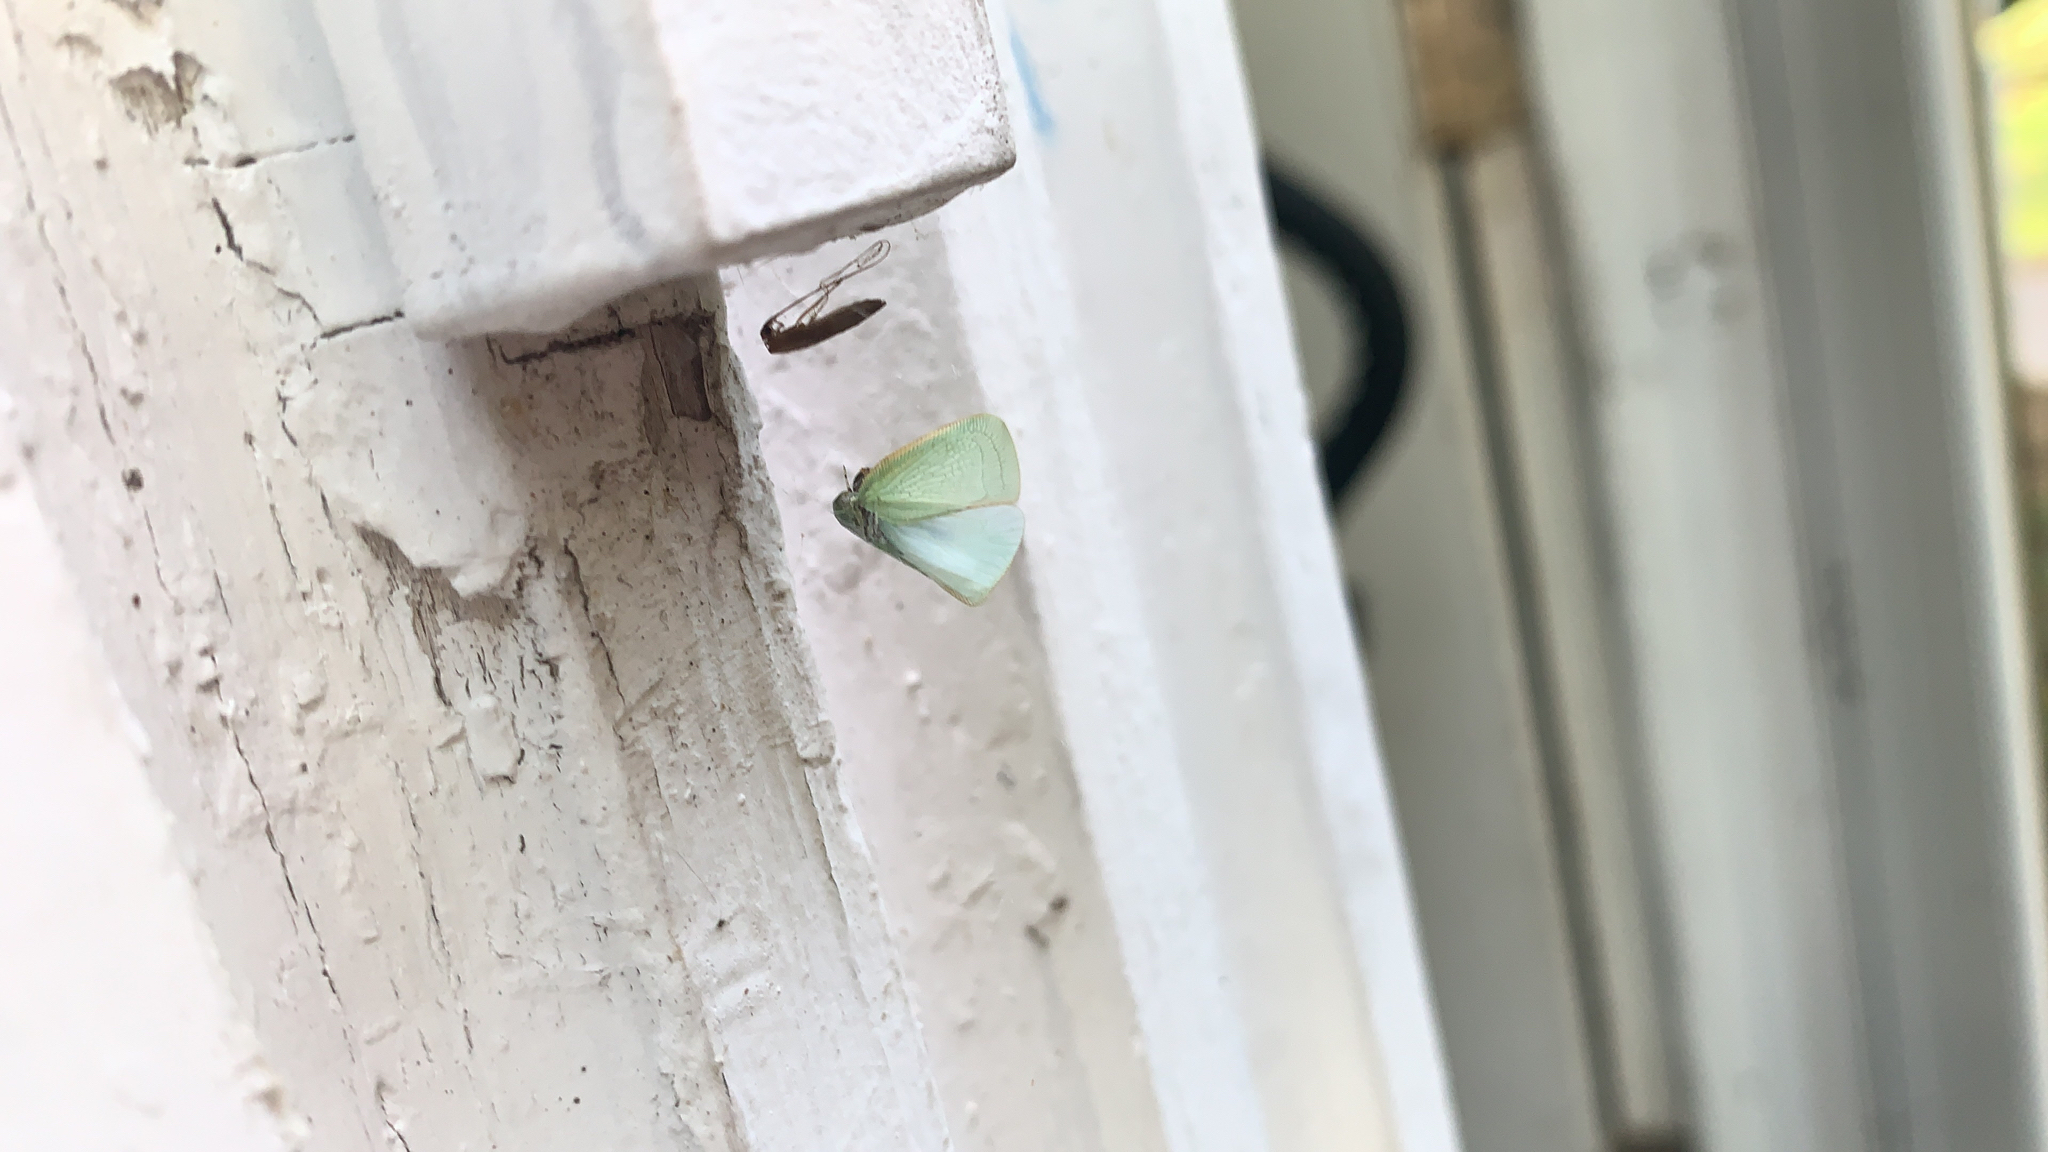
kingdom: Animalia
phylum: Arthropoda
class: Insecta
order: Hemiptera
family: Flatidae
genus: Flatormenis
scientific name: Flatormenis proxima
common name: Northern flatid planthopper
